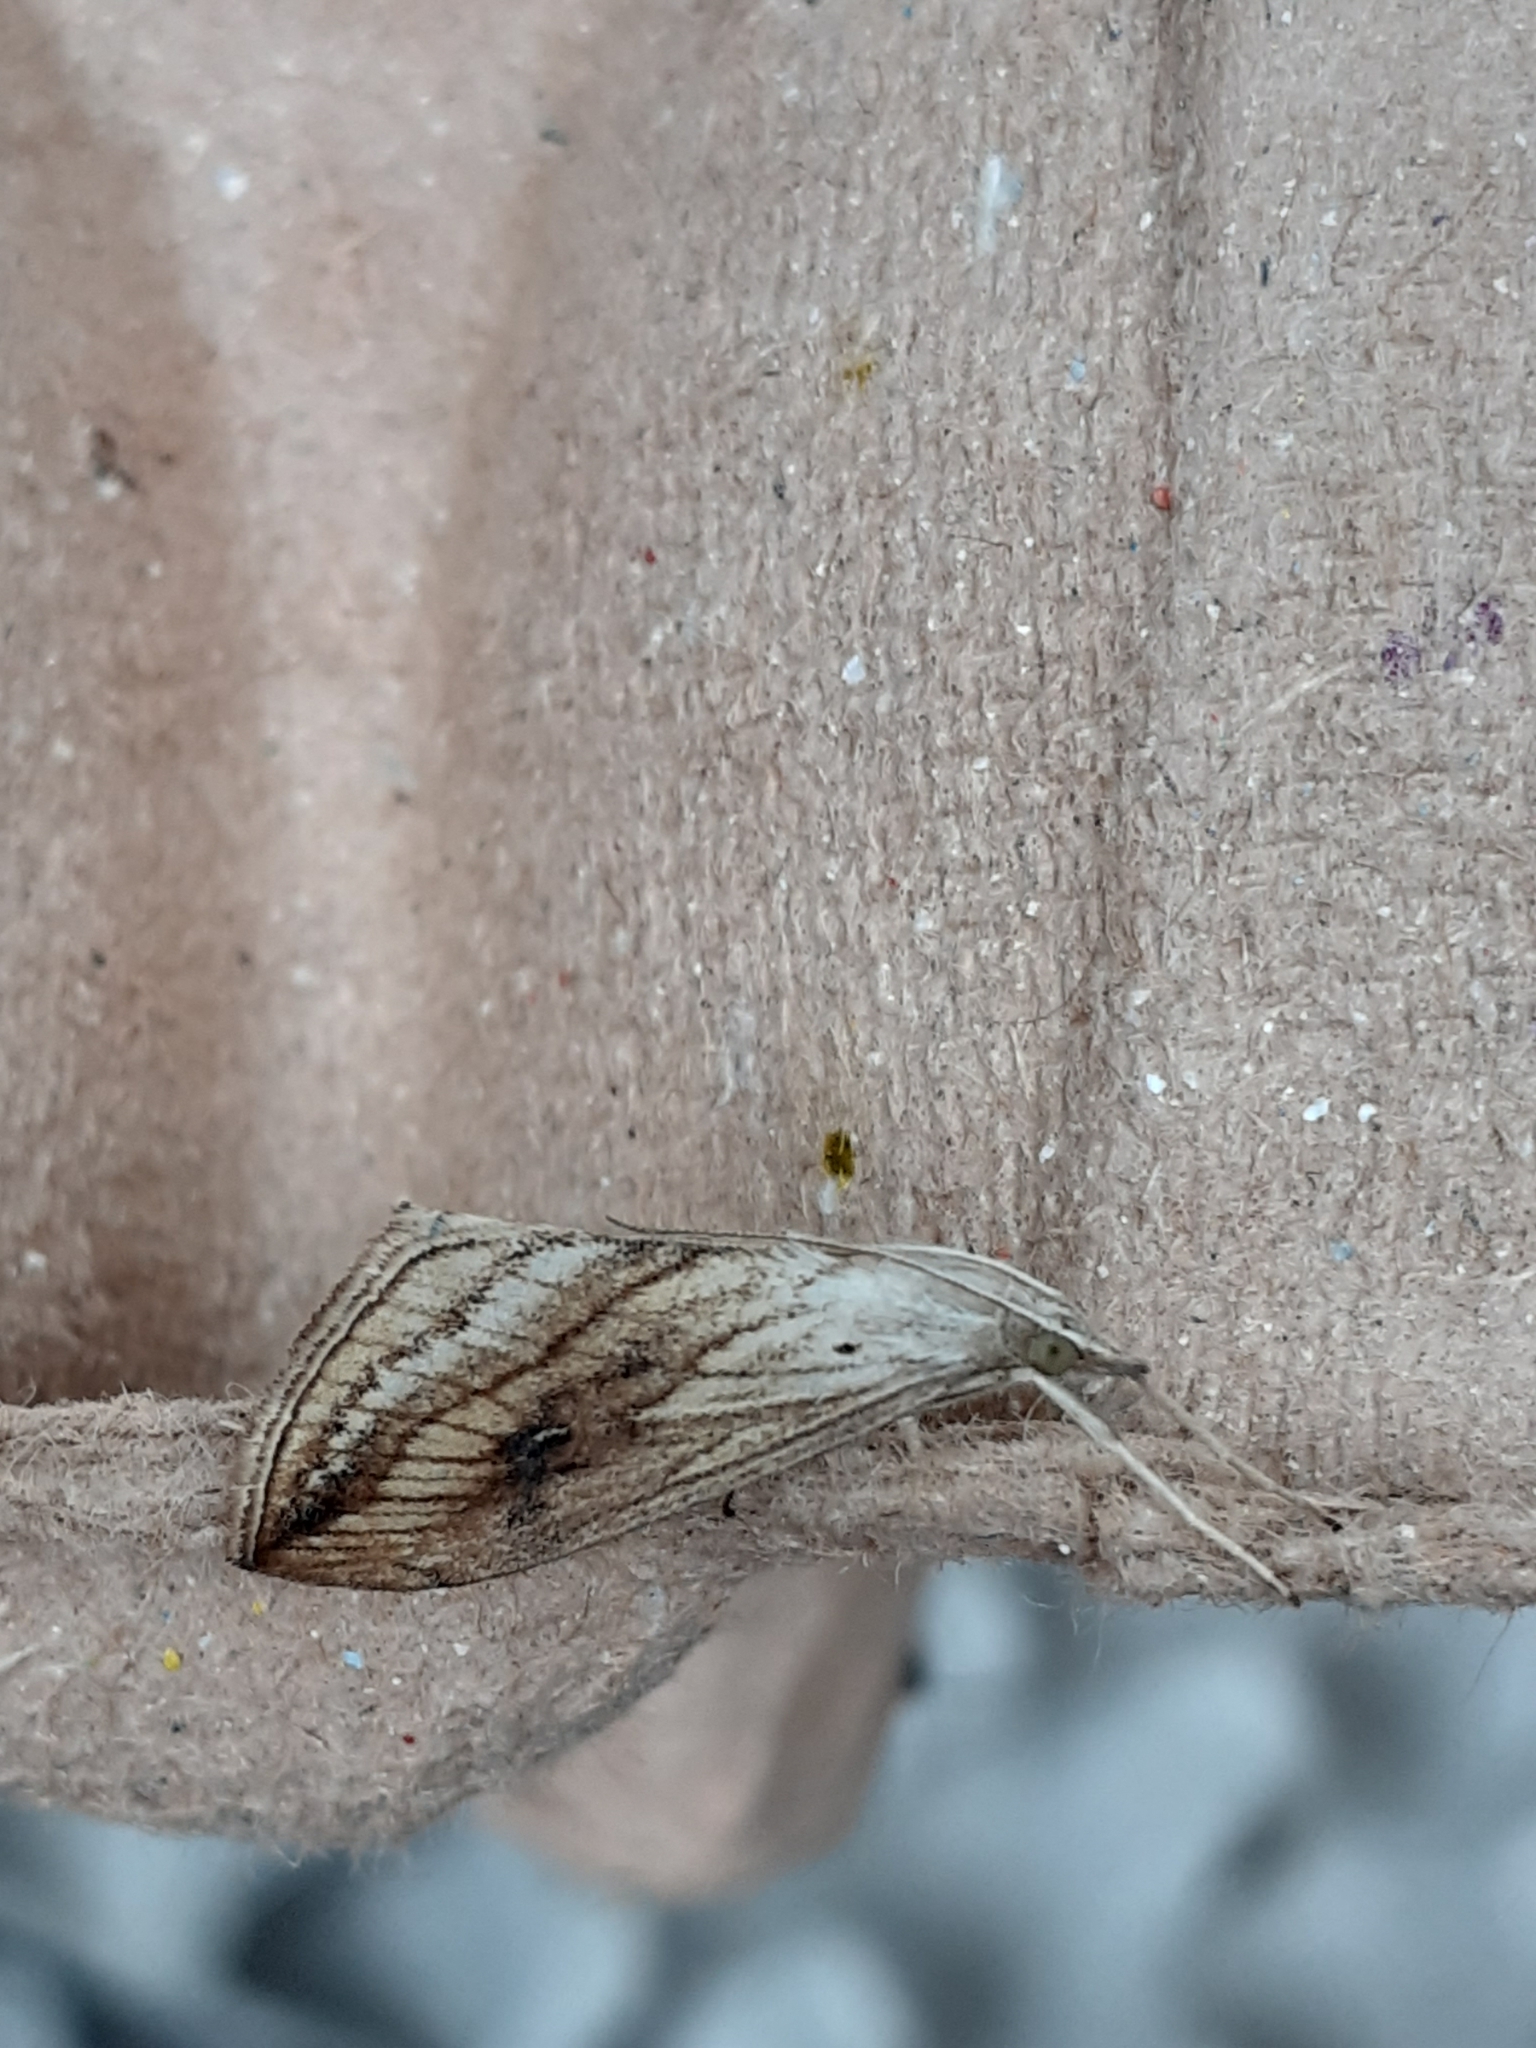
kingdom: Animalia
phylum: Arthropoda
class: Insecta
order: Lepidoptera
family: Crambidae
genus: Evergestis
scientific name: Evergestis forficalis
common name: Garden pebble
